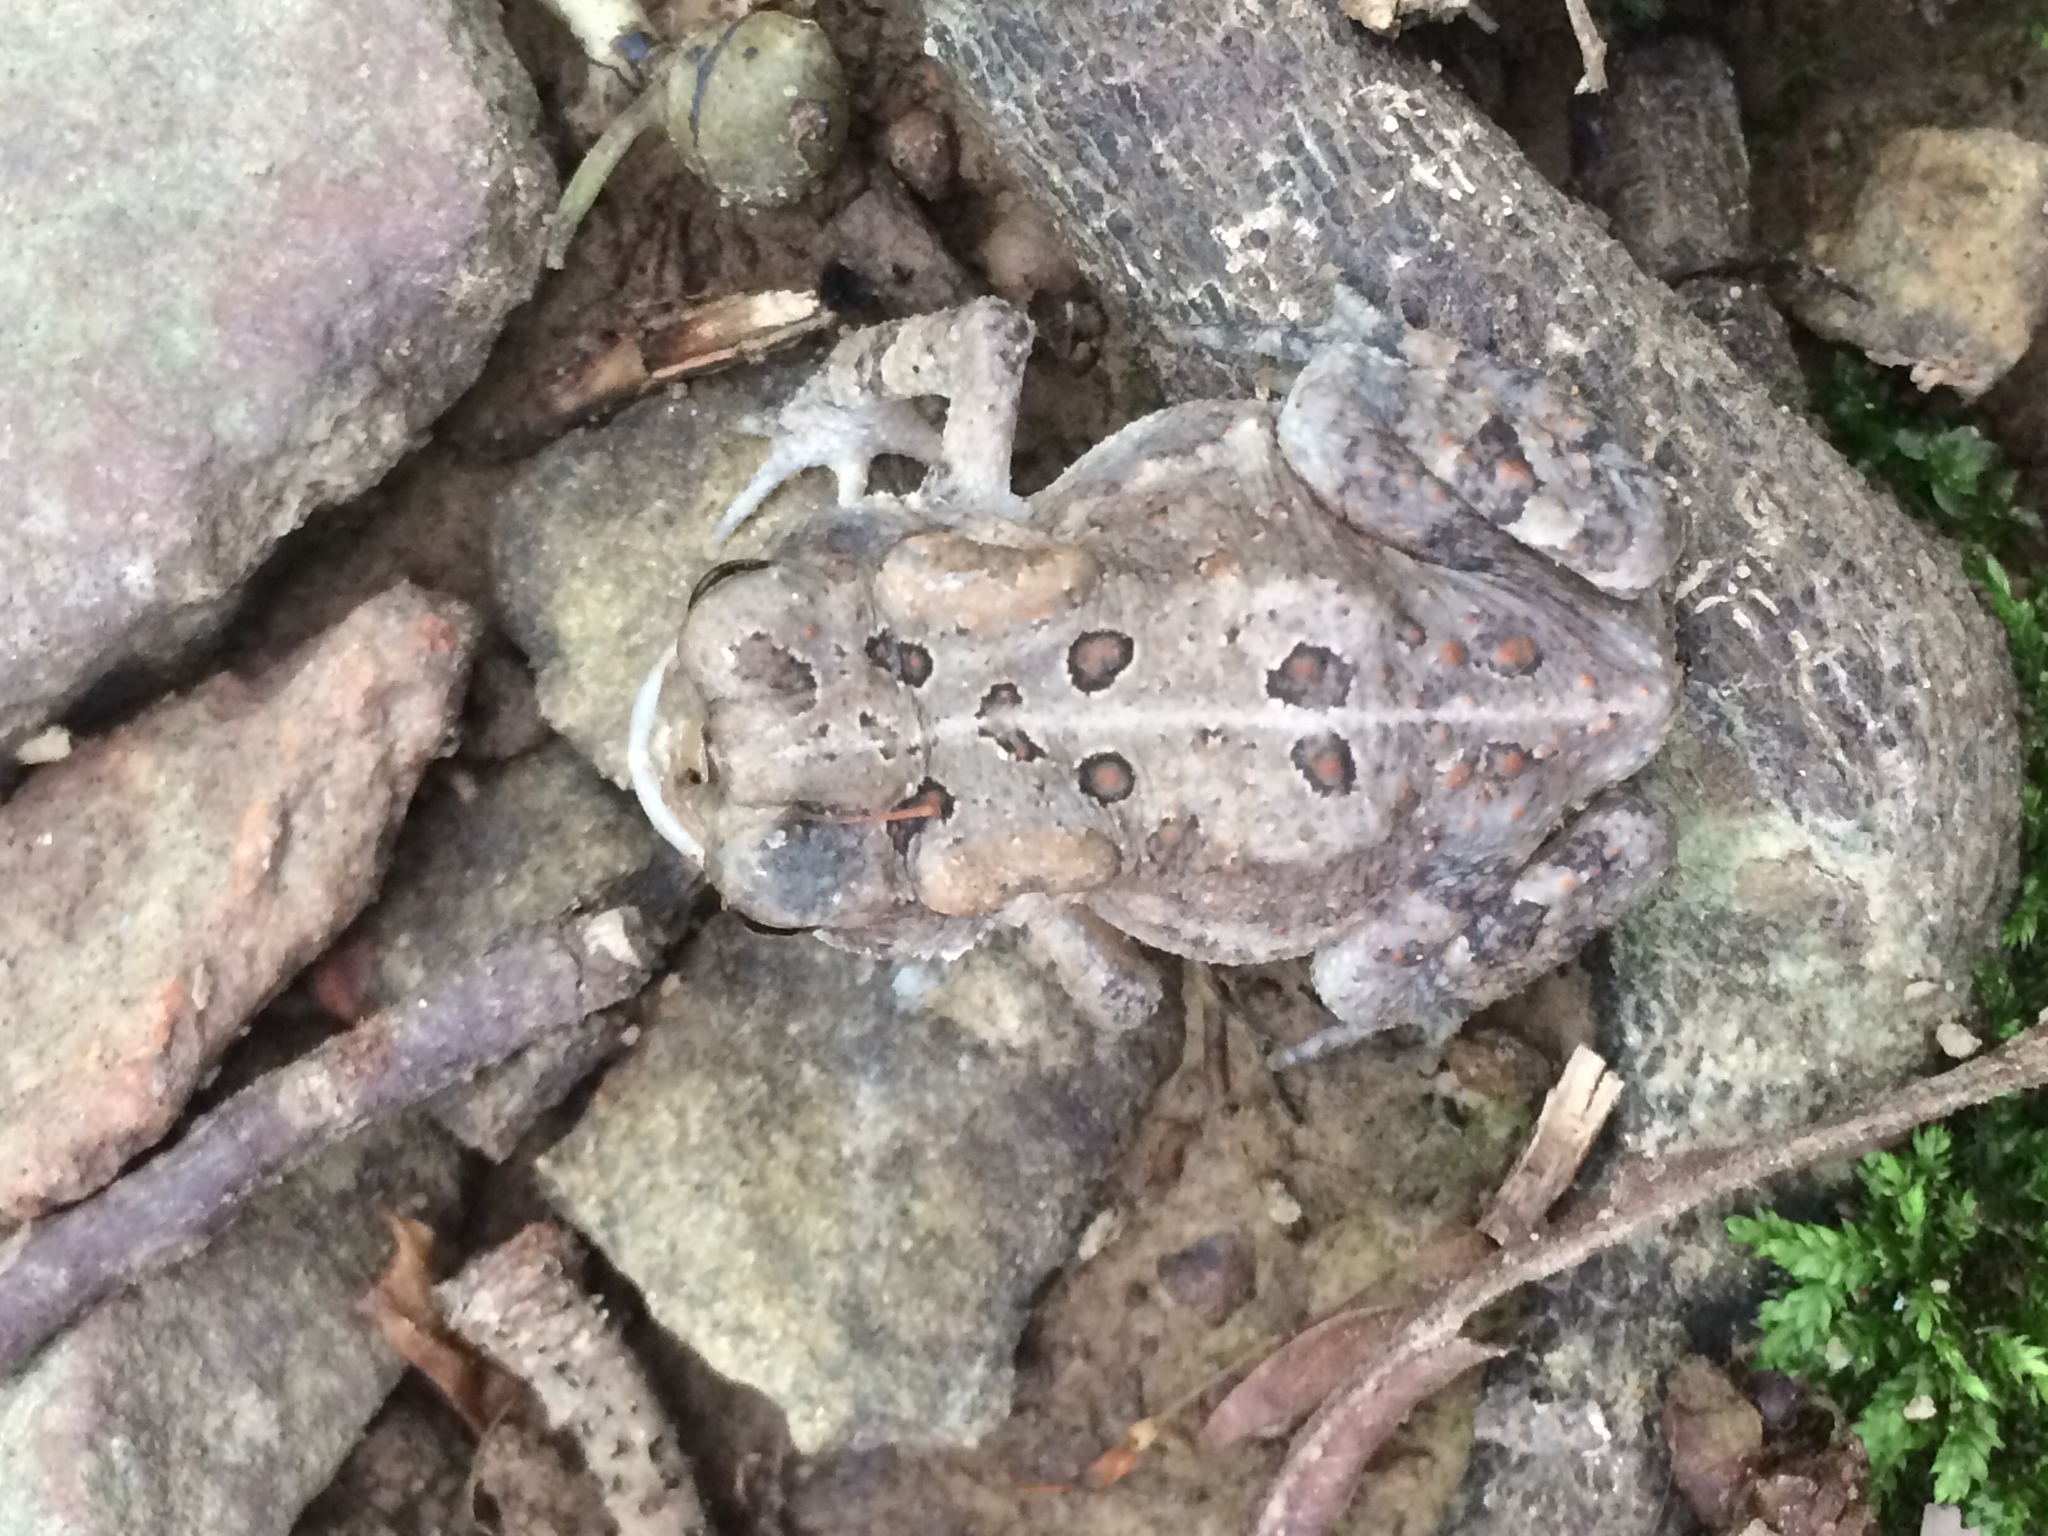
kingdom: Animalia
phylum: Chordata
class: Amphibia
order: Anura
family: Bufonidae
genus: Anaxyrus
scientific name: Anaxyrus americanus
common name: American toad
